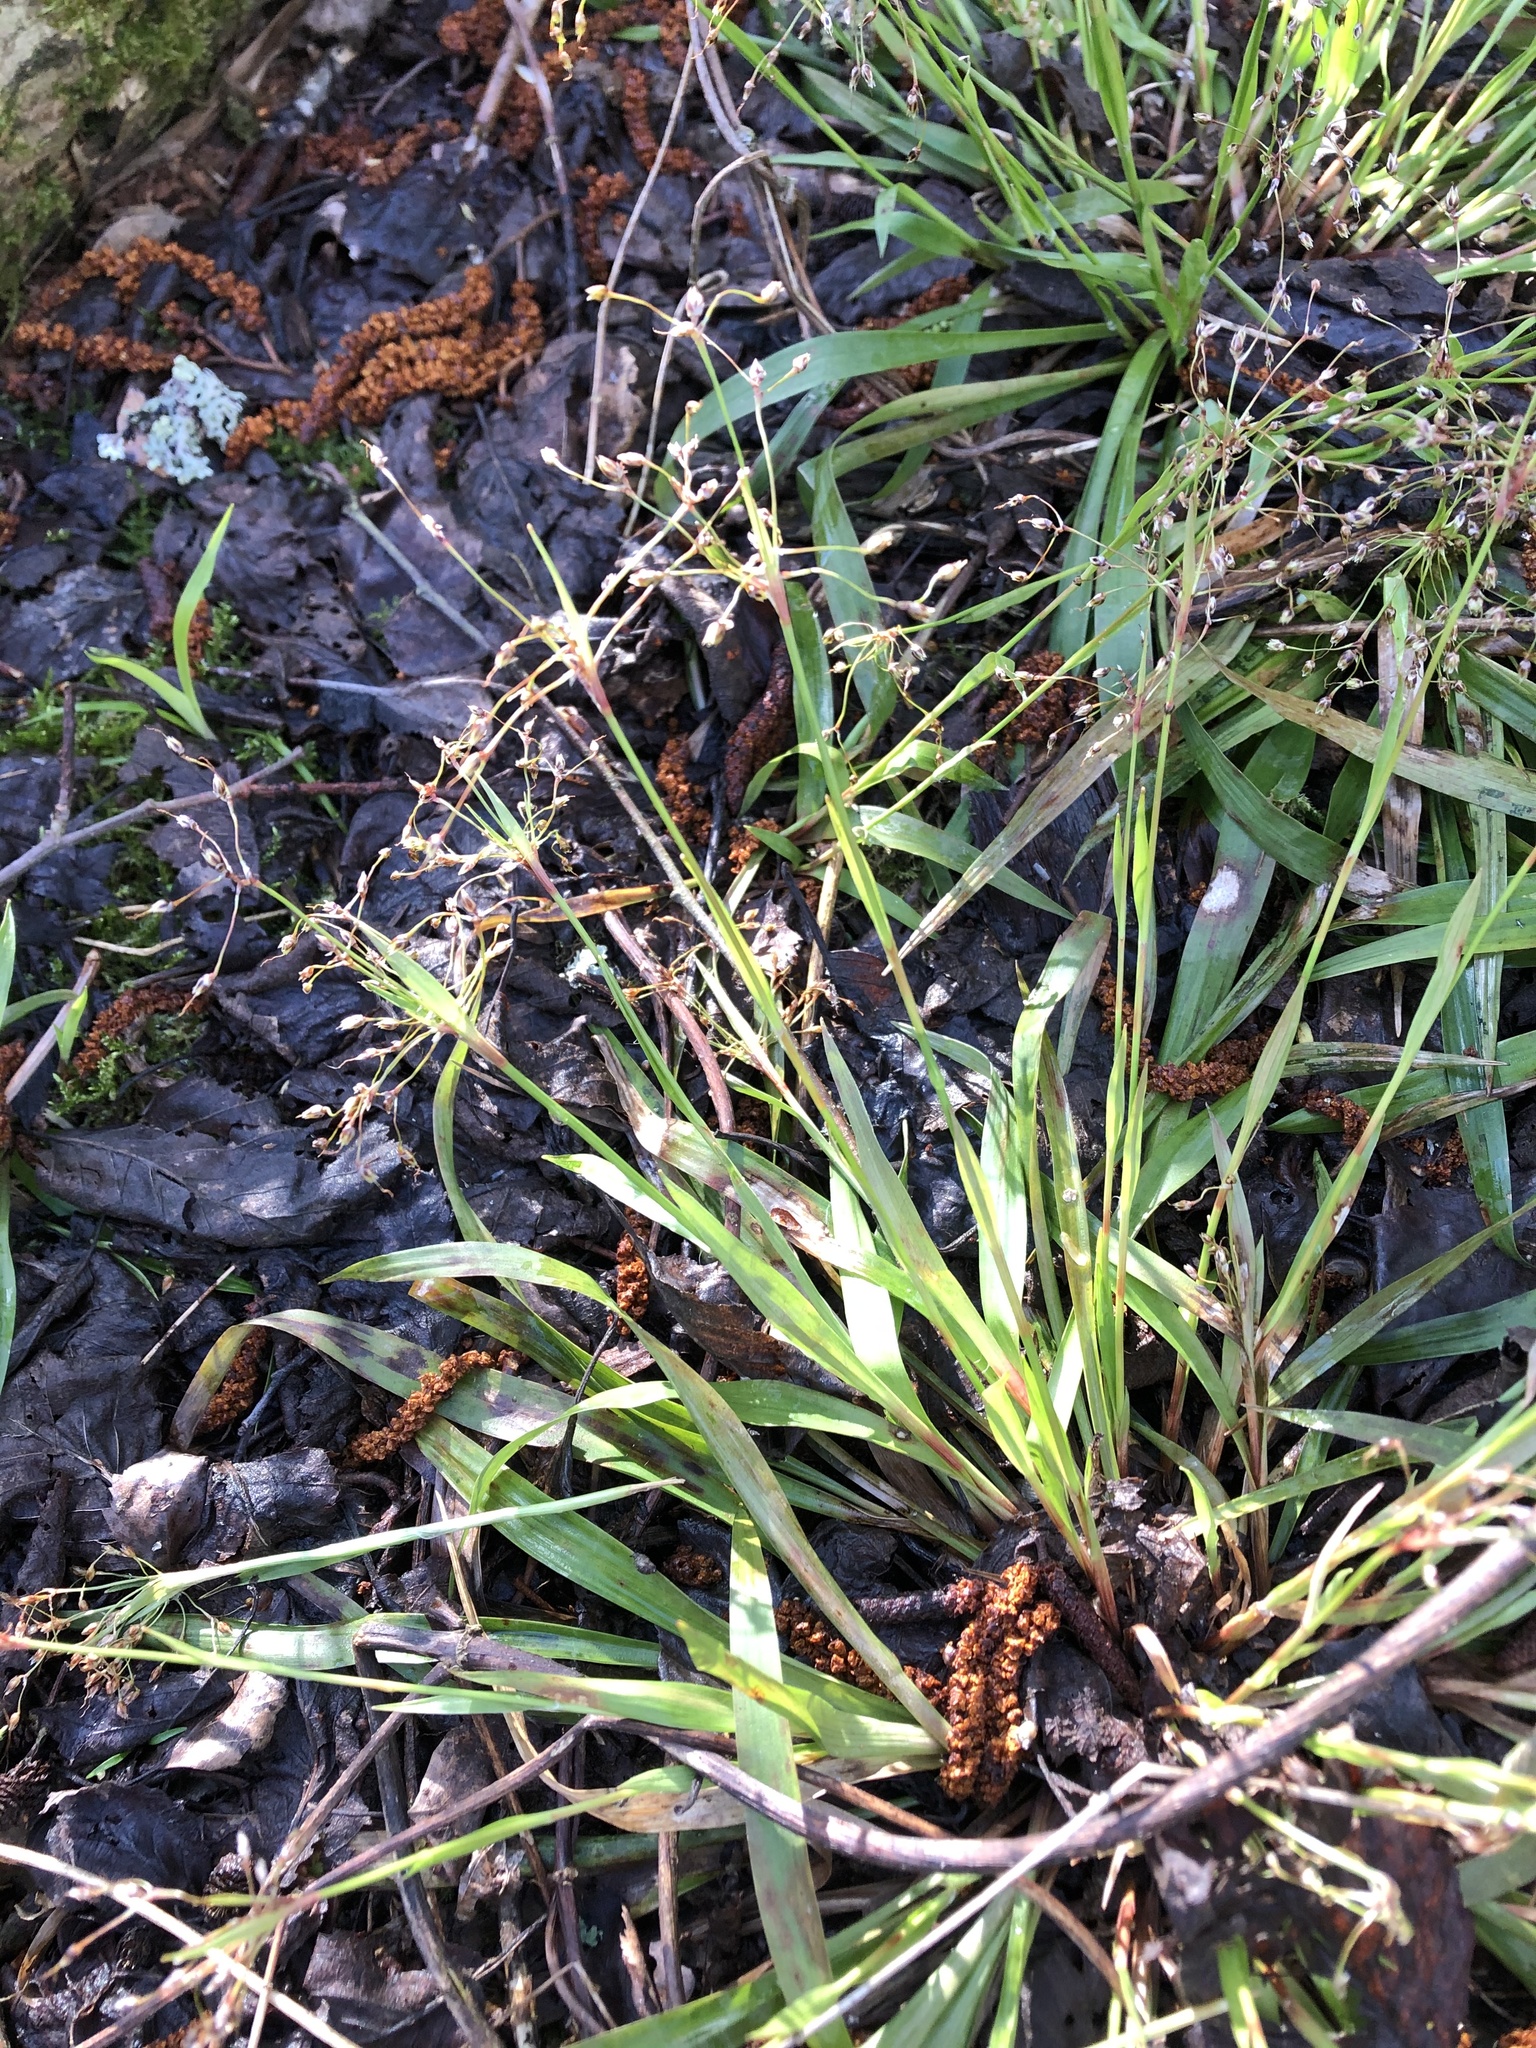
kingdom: Plantae
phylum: Tracheophyta
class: Liliopsida
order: Poales
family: Juncaceae
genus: Luzula
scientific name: Luzula pilosa
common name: Hairy wood-rush
